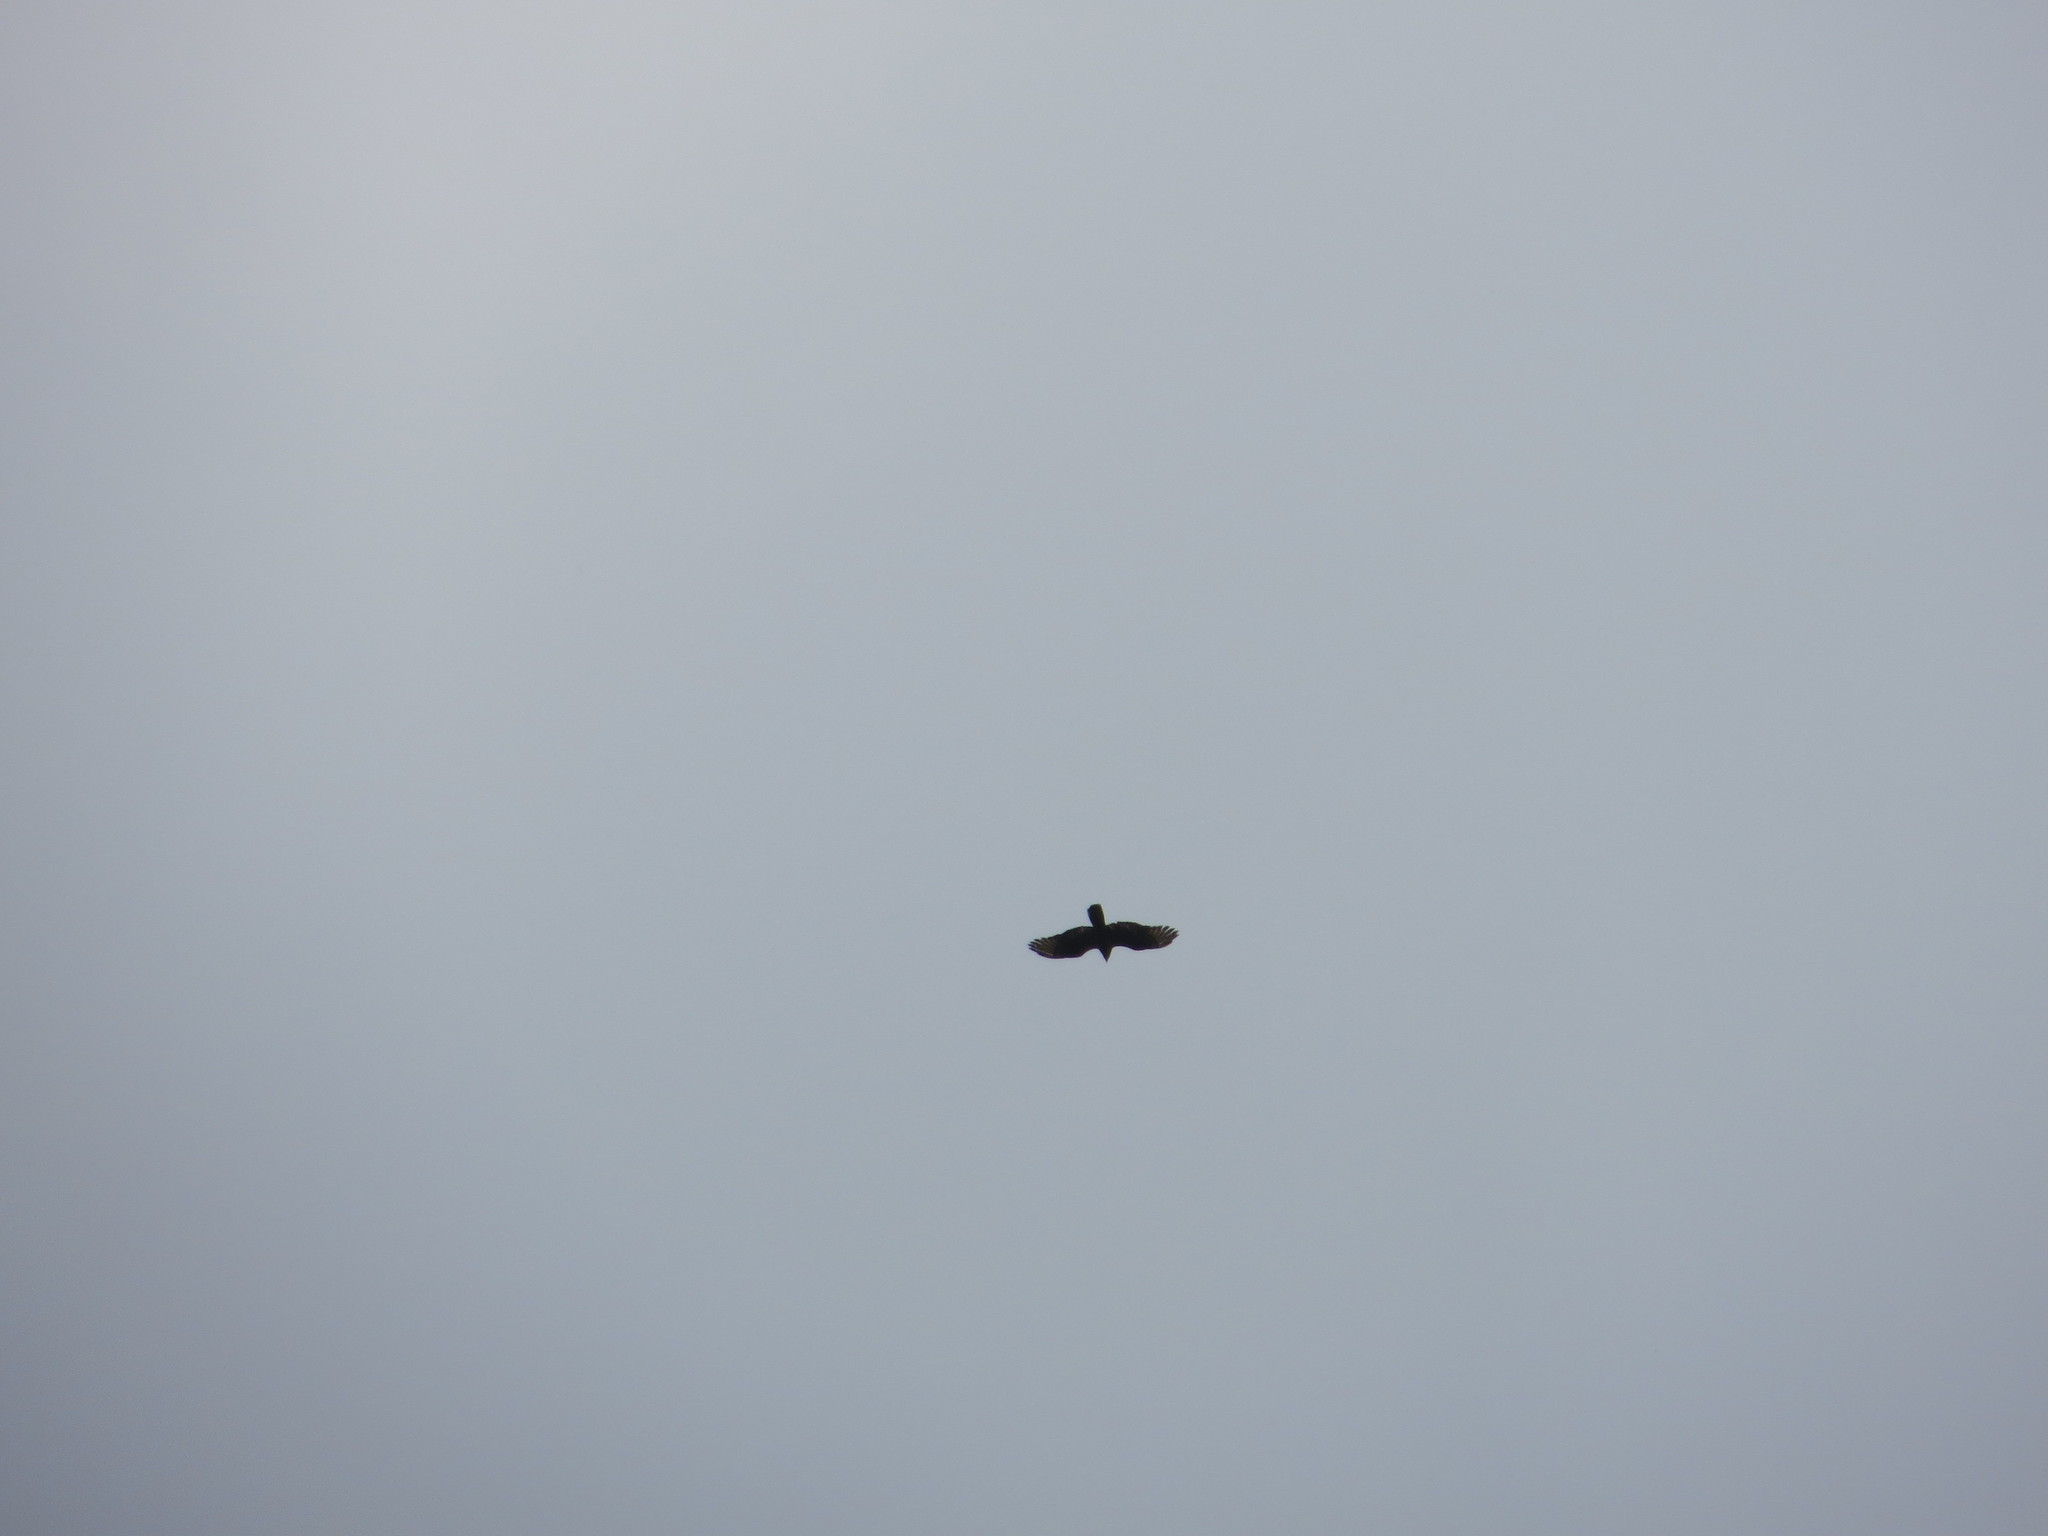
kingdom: Animalia
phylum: Chordata
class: Aves
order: Accipitriformes
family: Accipitridae
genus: Pernis
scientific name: Pernis apivorus
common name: European honey buzzard
